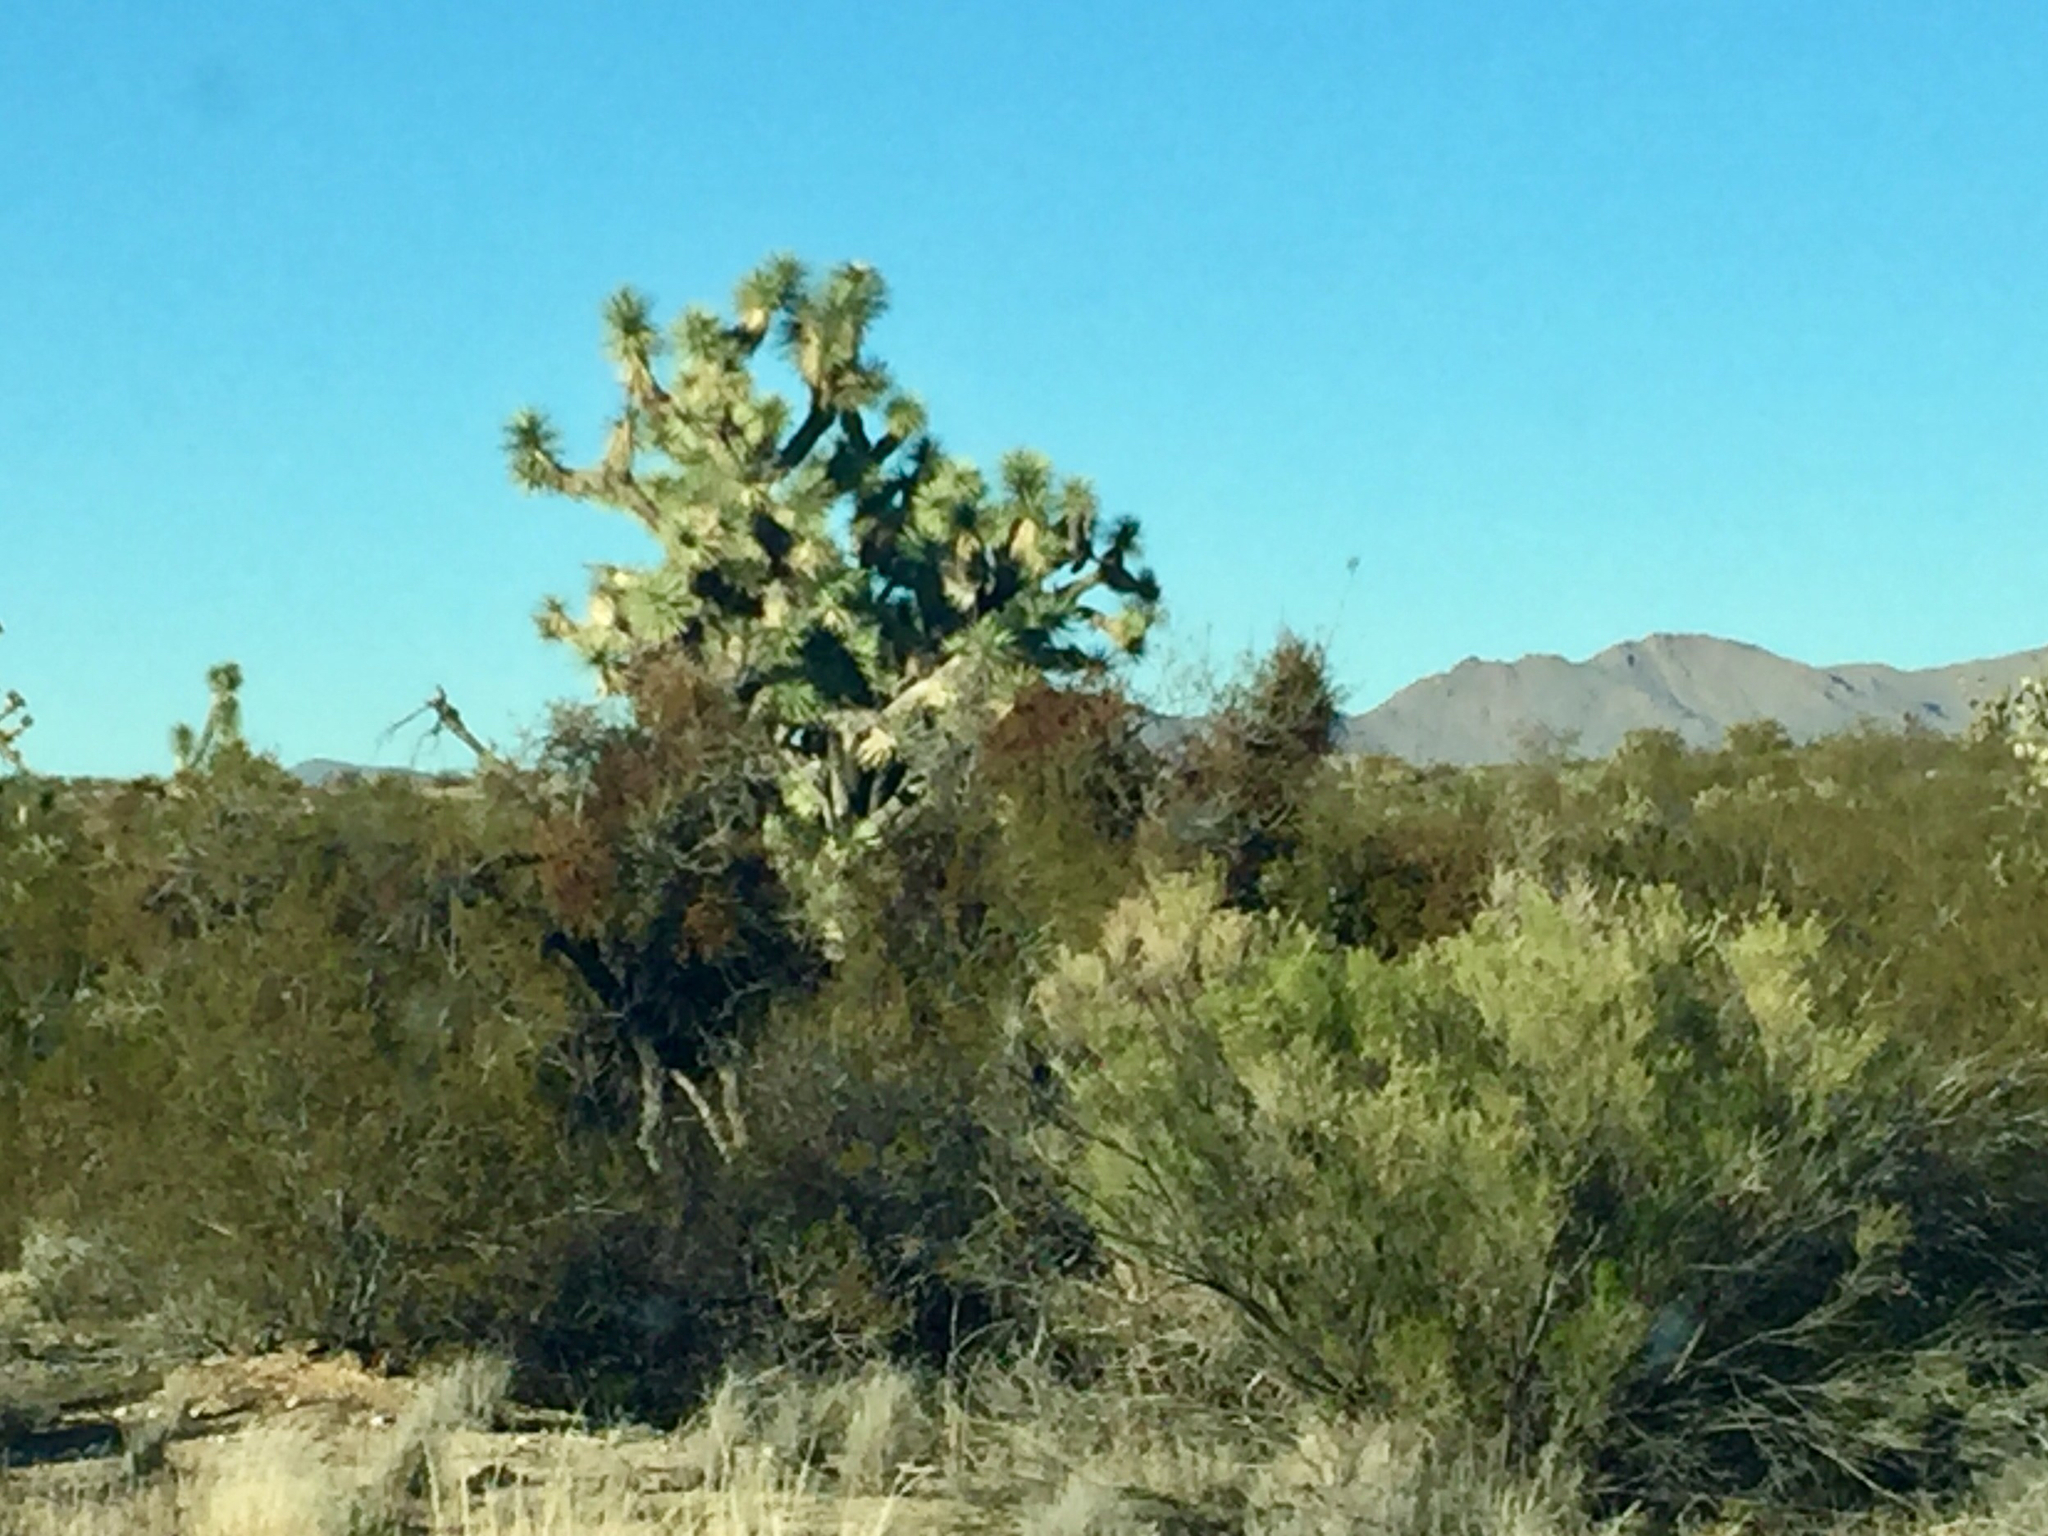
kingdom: Plantae
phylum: Tracheophyta
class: Liliopsida
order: Asparagales
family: Asparagaceae
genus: Yucca
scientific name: Yucca brevifolia
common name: Joshua tree
